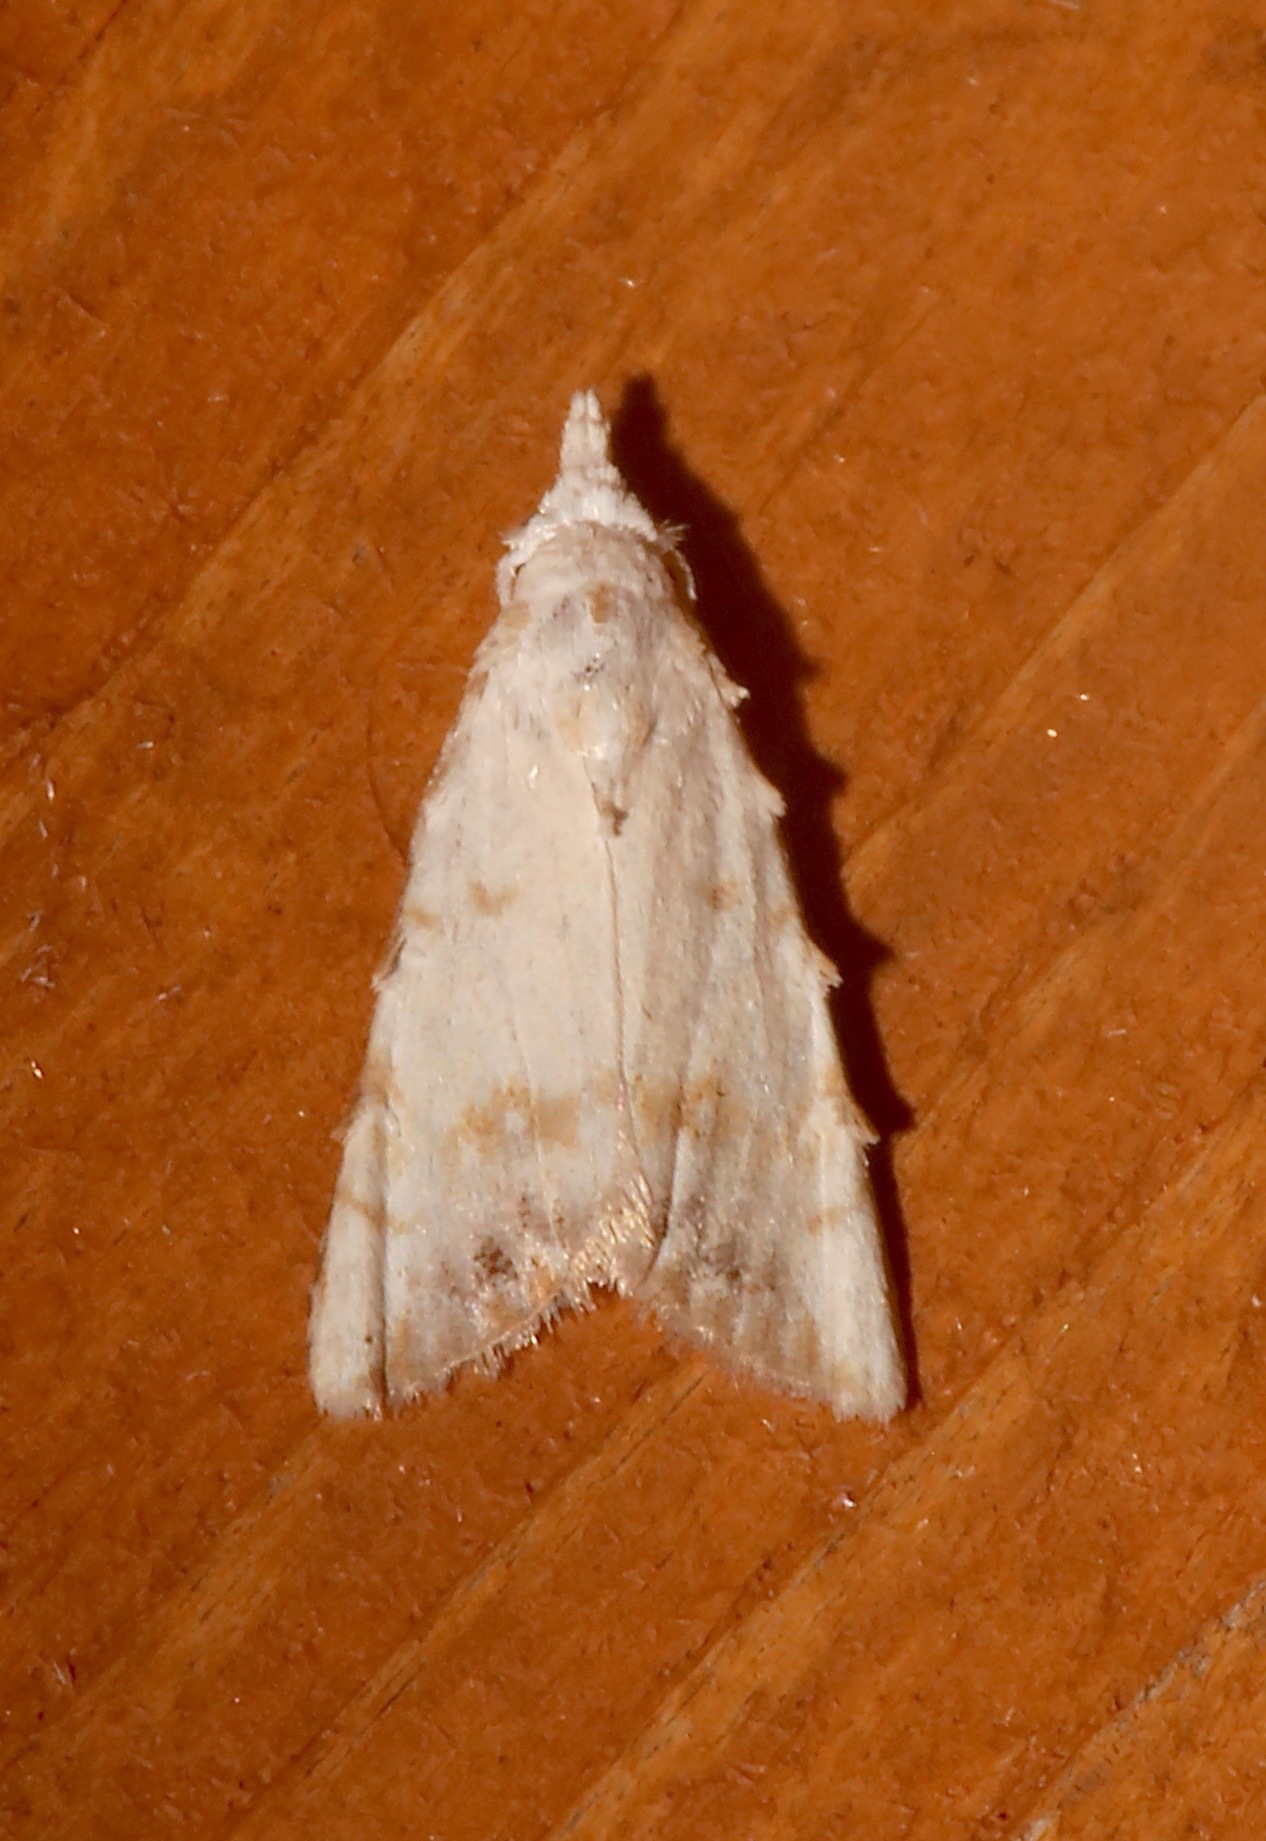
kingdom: Animalia
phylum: Arthropoda
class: Insecta
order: Lepidoptera
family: Nolidae
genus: Nola
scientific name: Nola cereella
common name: Sorghum webworm moth
